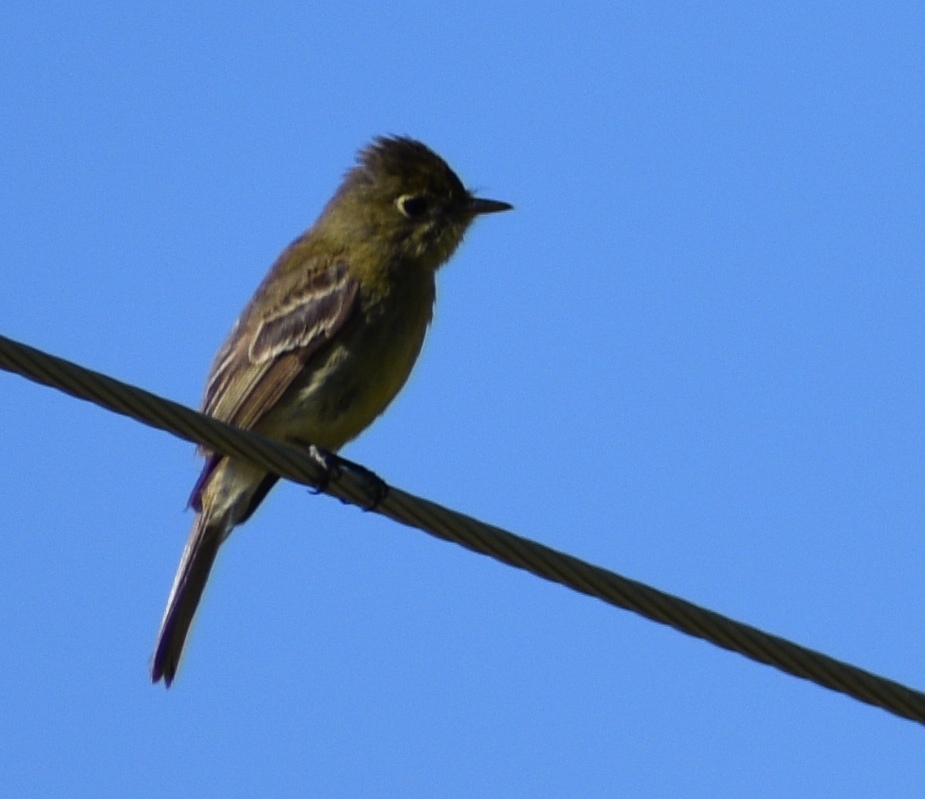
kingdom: Animalia
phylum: Chordata
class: Aves
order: Passeriformes
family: Tyrannidae
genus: Empidonax
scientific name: Empidonax difficilis
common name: Pacific-slope flycatcher
